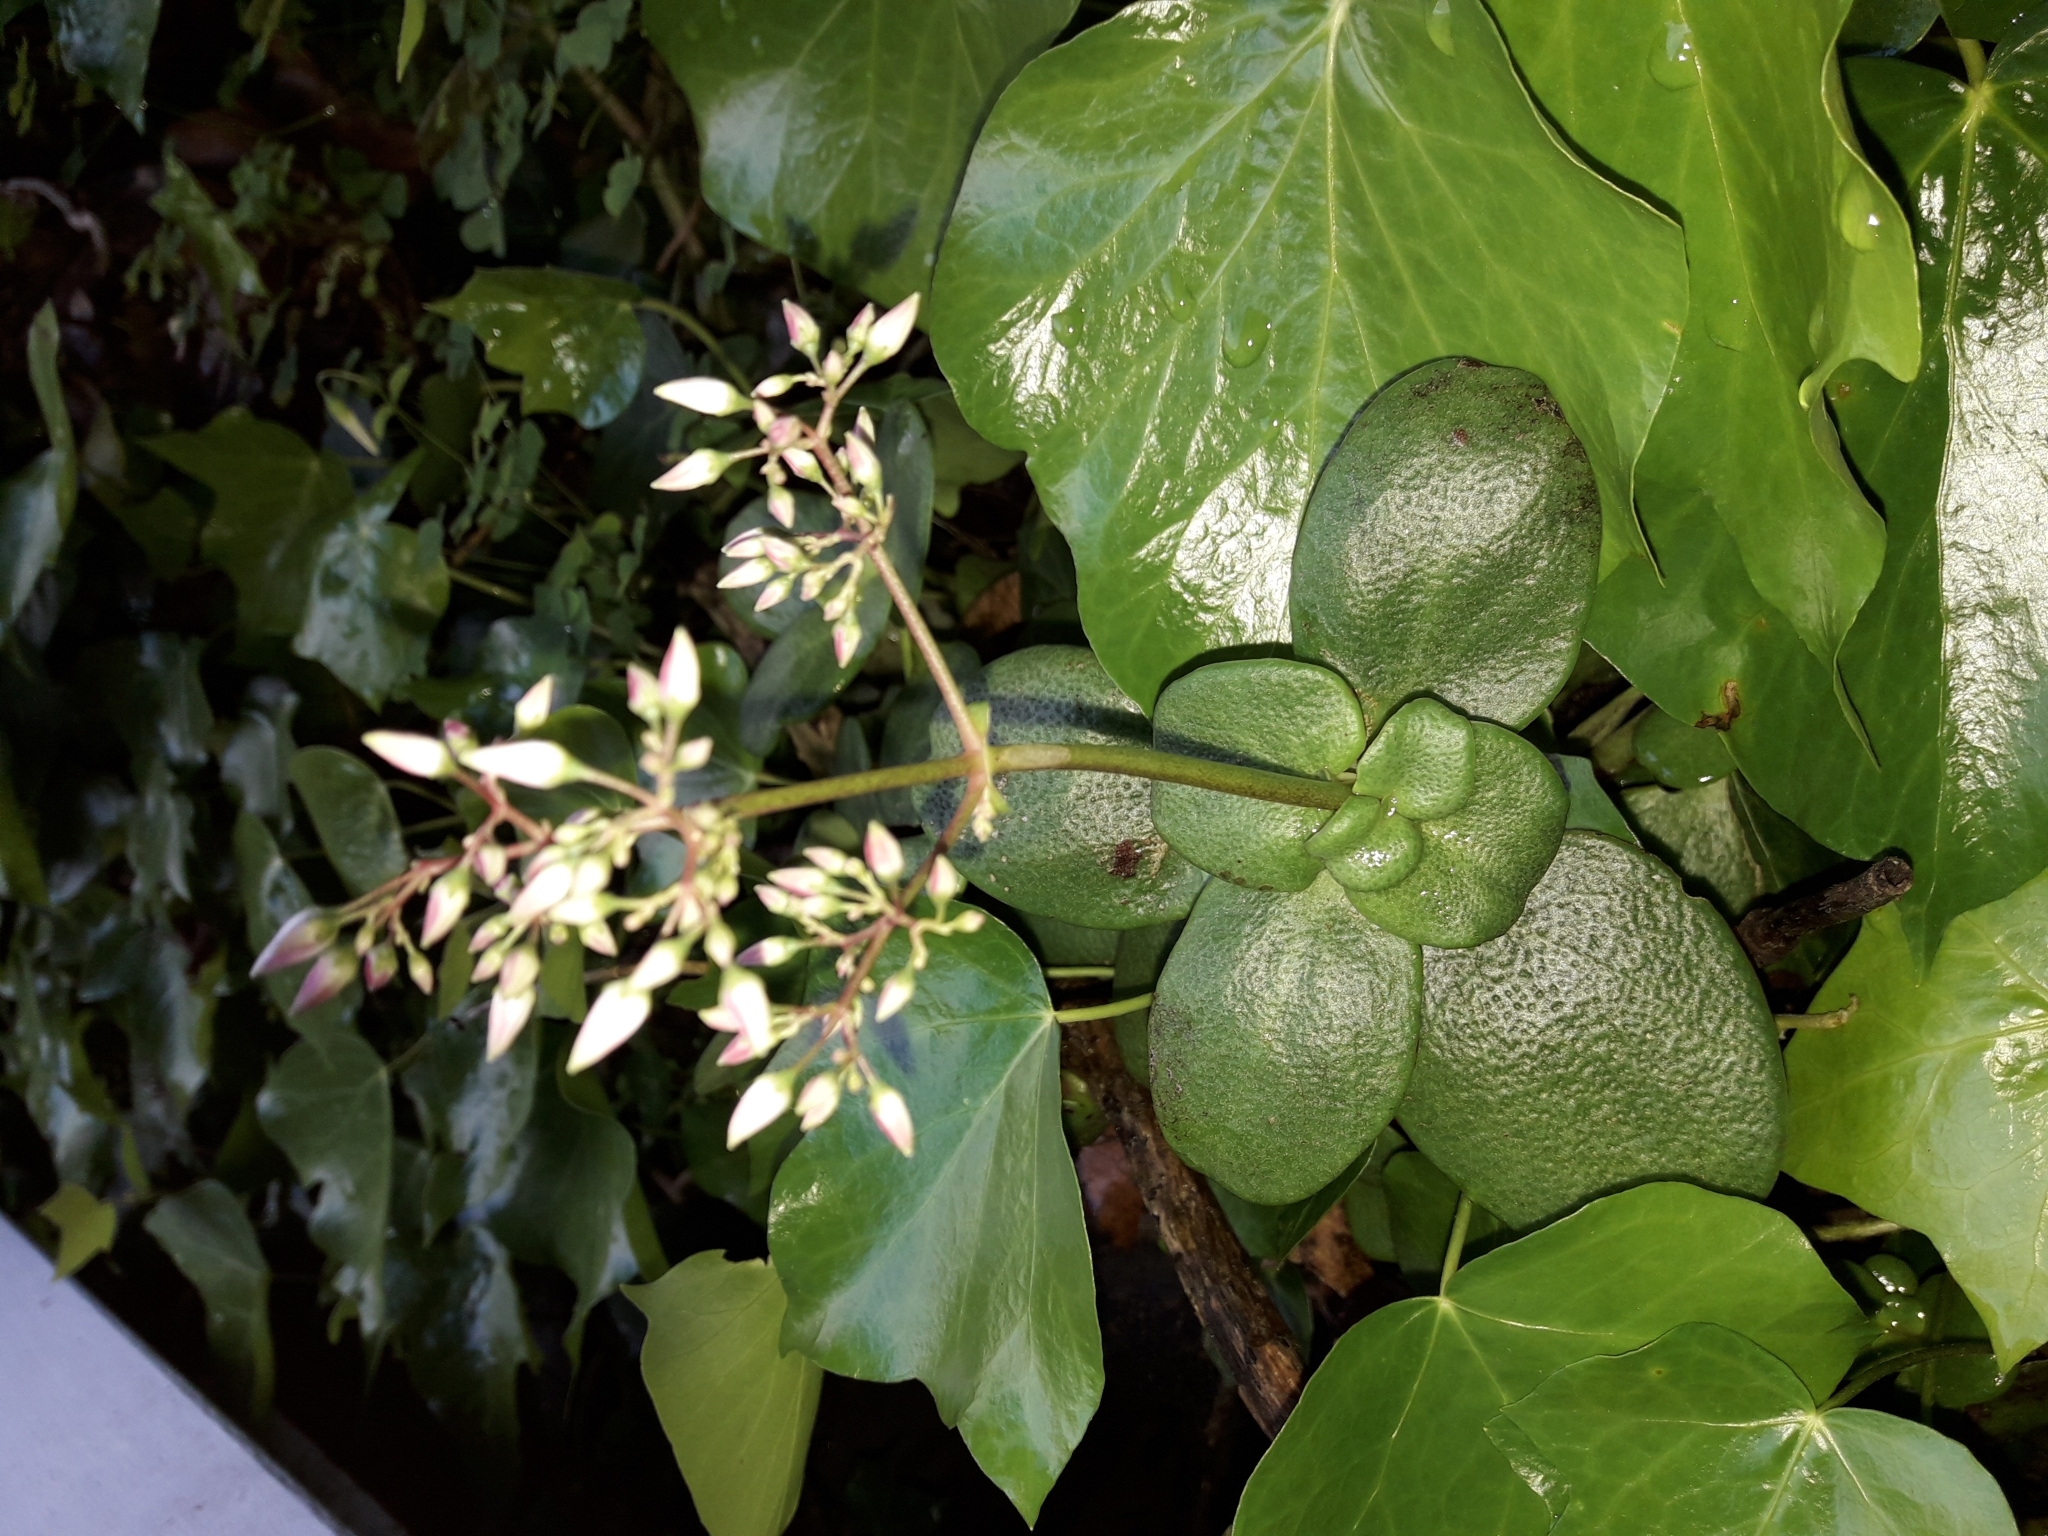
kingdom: Plantae
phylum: Tracheophyta
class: Magnoliopsida
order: Saxifragales
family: Crassulaceae
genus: Crassula
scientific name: Crassula multicava
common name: Cape province pygmyweed
